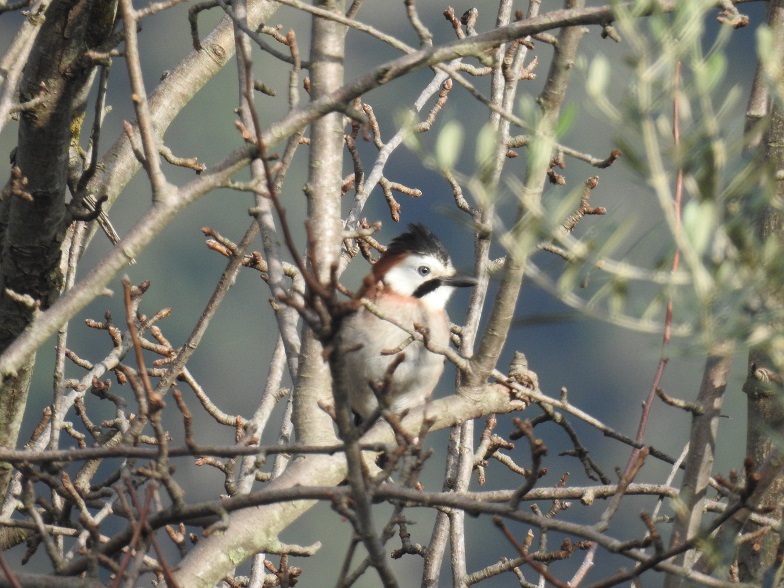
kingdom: Animalia
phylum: Chordata
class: Aves
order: Passeriformes
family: Corvidae
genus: Garrulus
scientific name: Garrulus glandarius
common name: Eurasian jay
